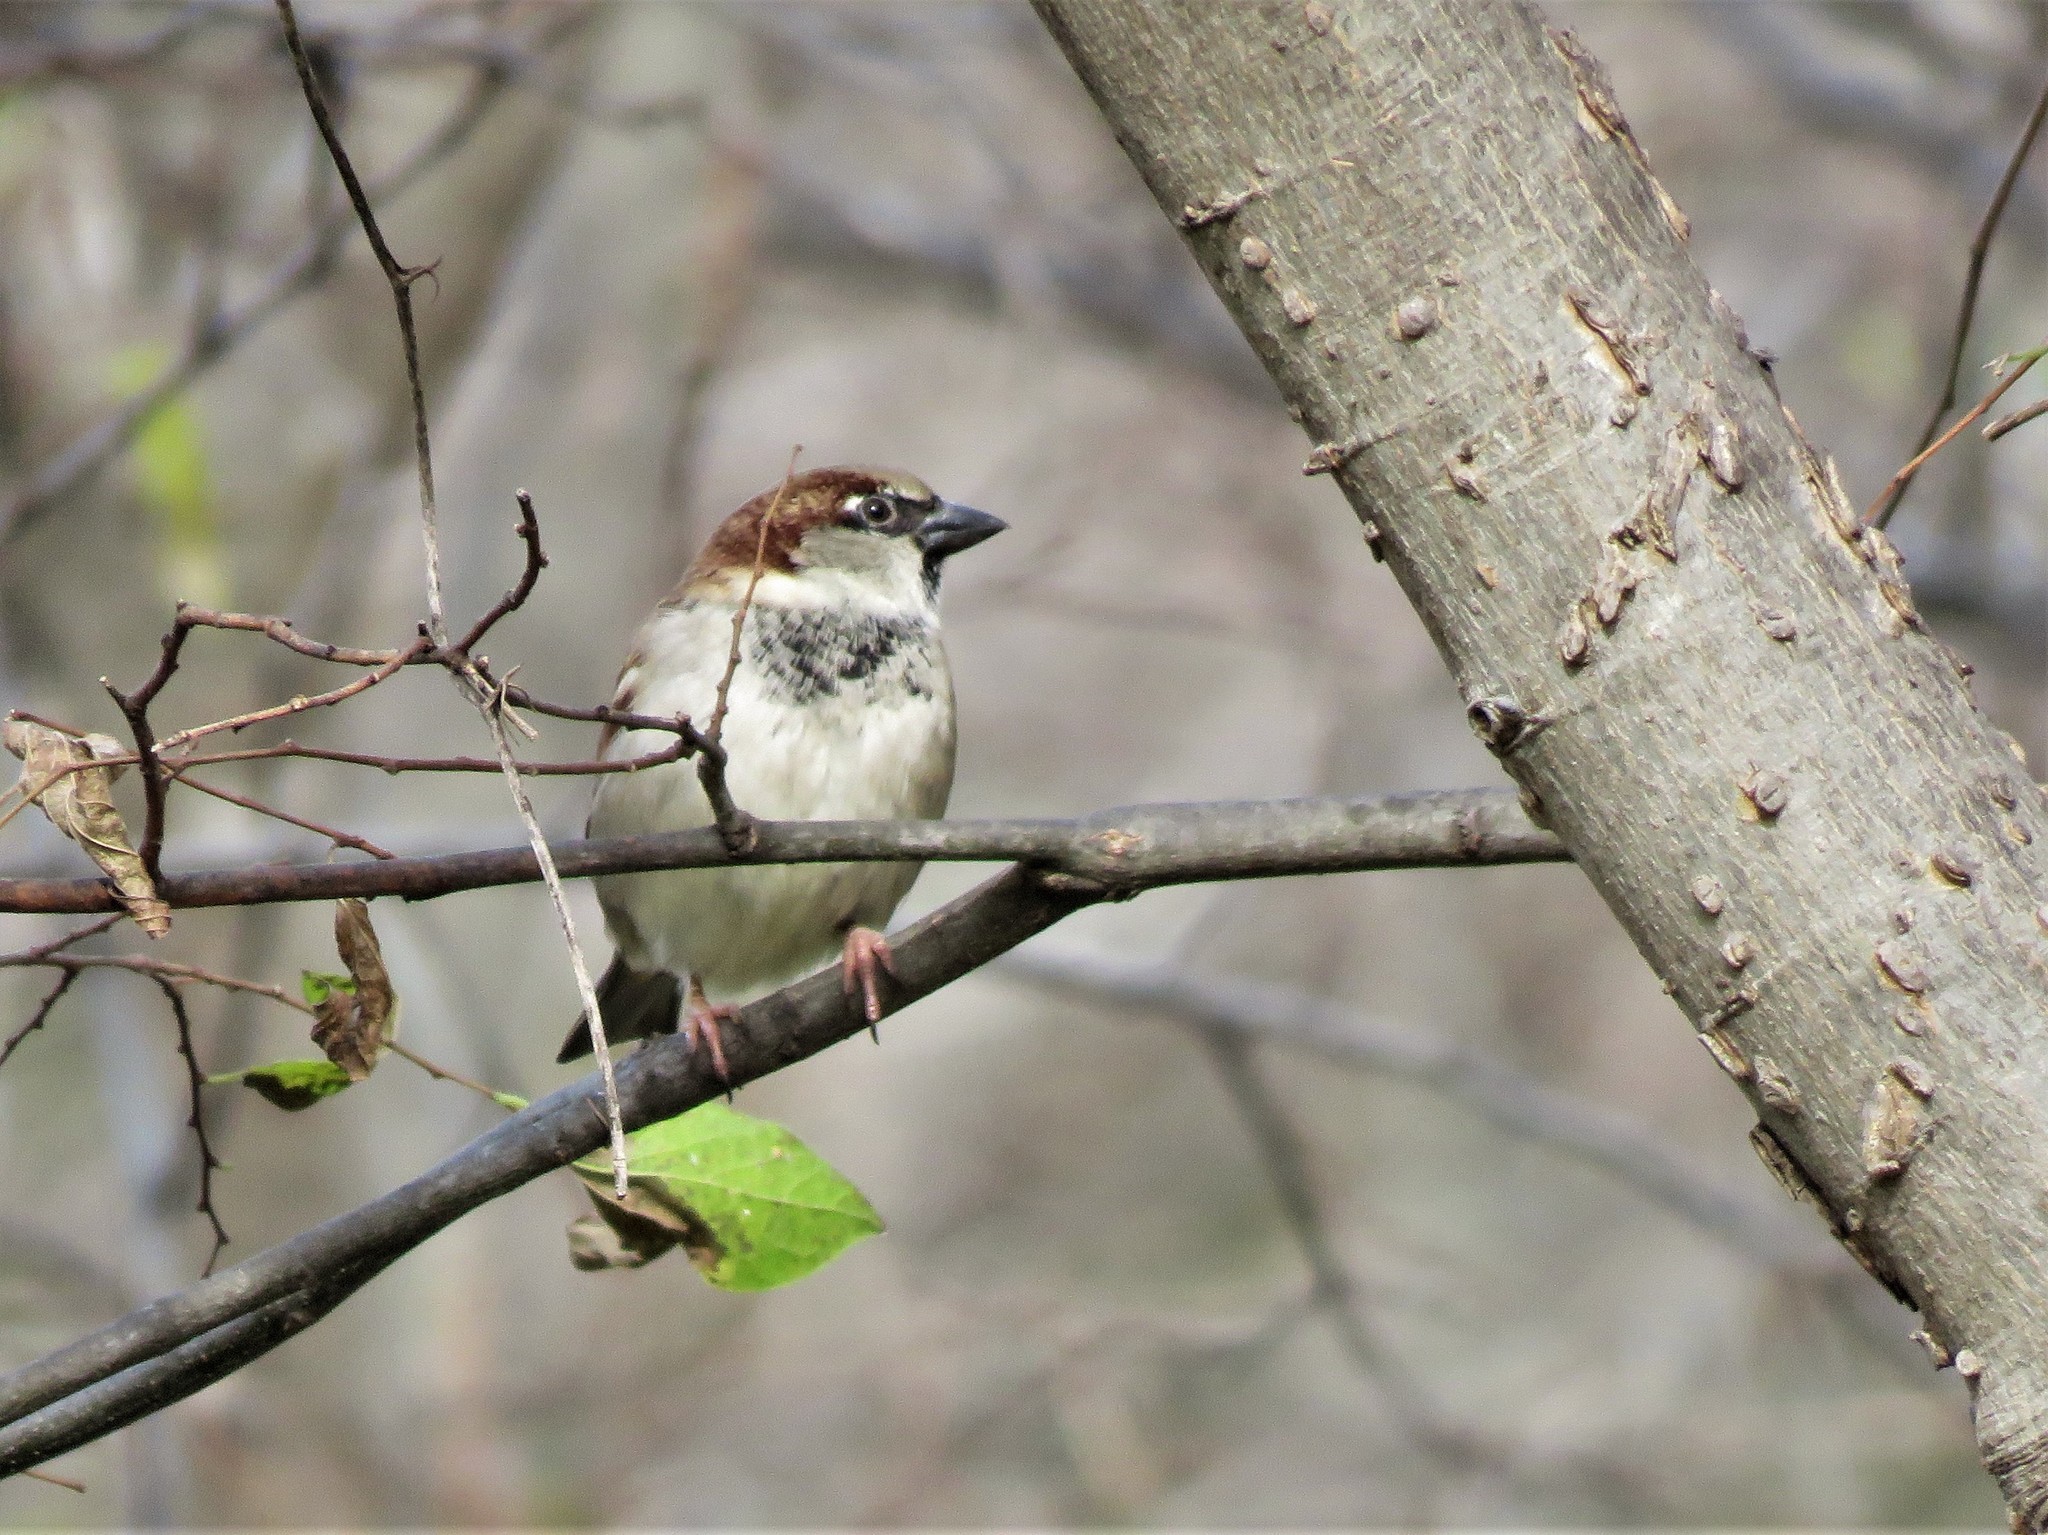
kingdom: Animalia
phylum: Chordata
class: Aves
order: Passeriformes
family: Passeridae
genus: Passer
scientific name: Passer domesticus
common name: House sparrow
